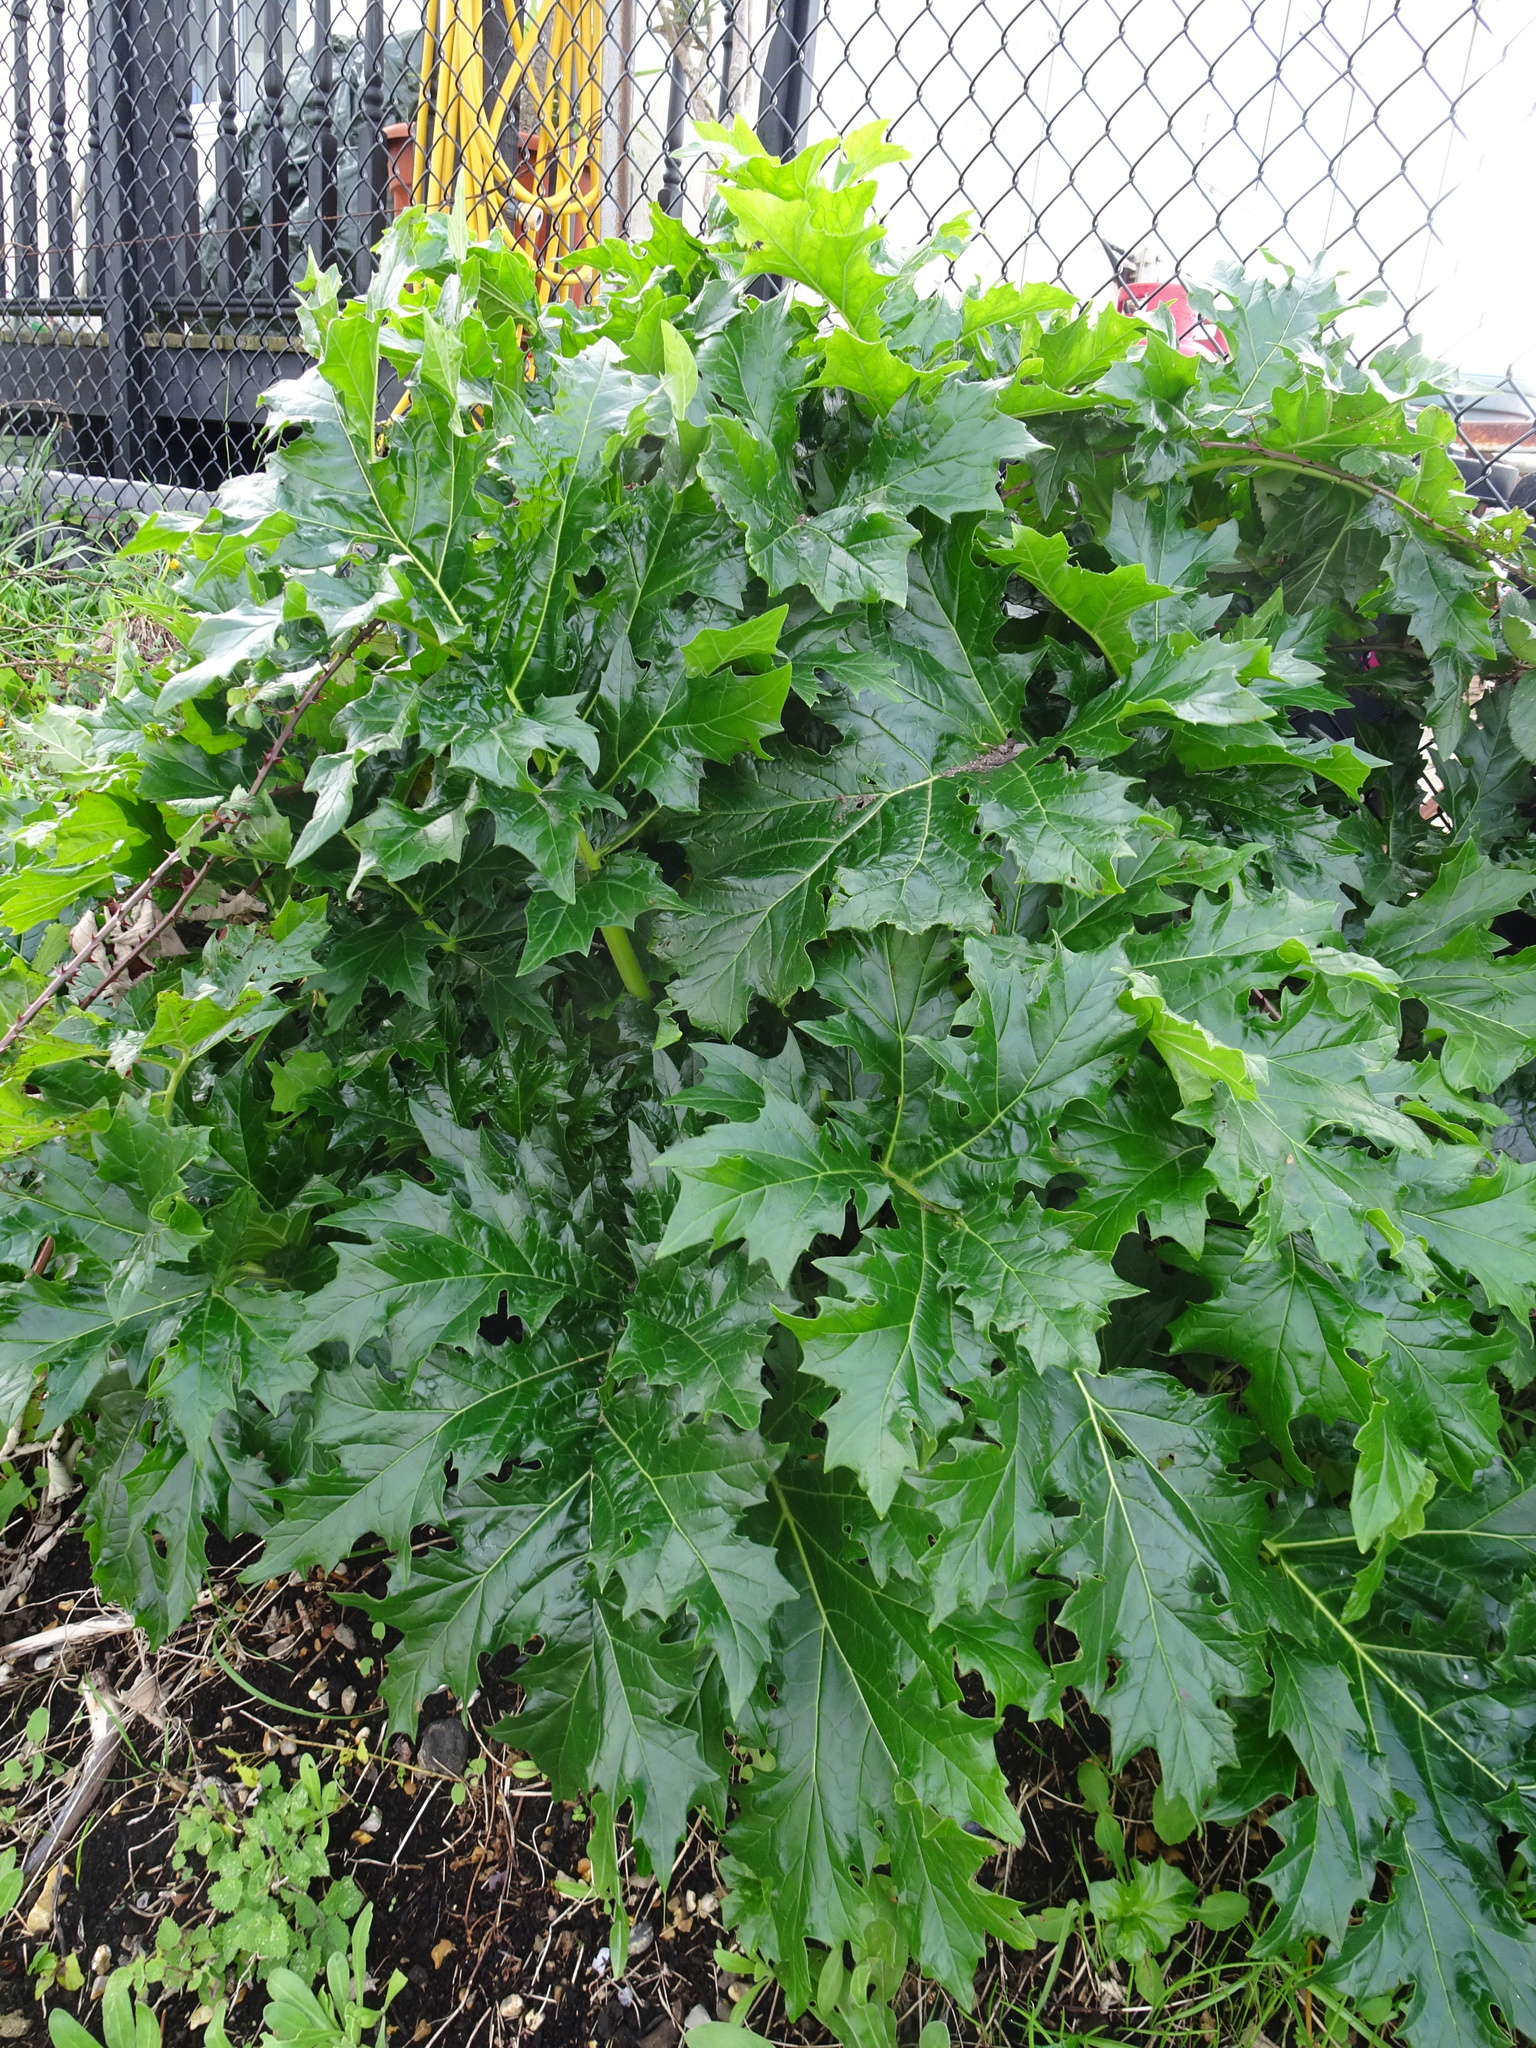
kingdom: Plantae
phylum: Tracheophyta
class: Magnoliopsida
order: Lamiales
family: Acanthaceae
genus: Acanthus
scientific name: Acanthus mollis
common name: Bear's-breech
